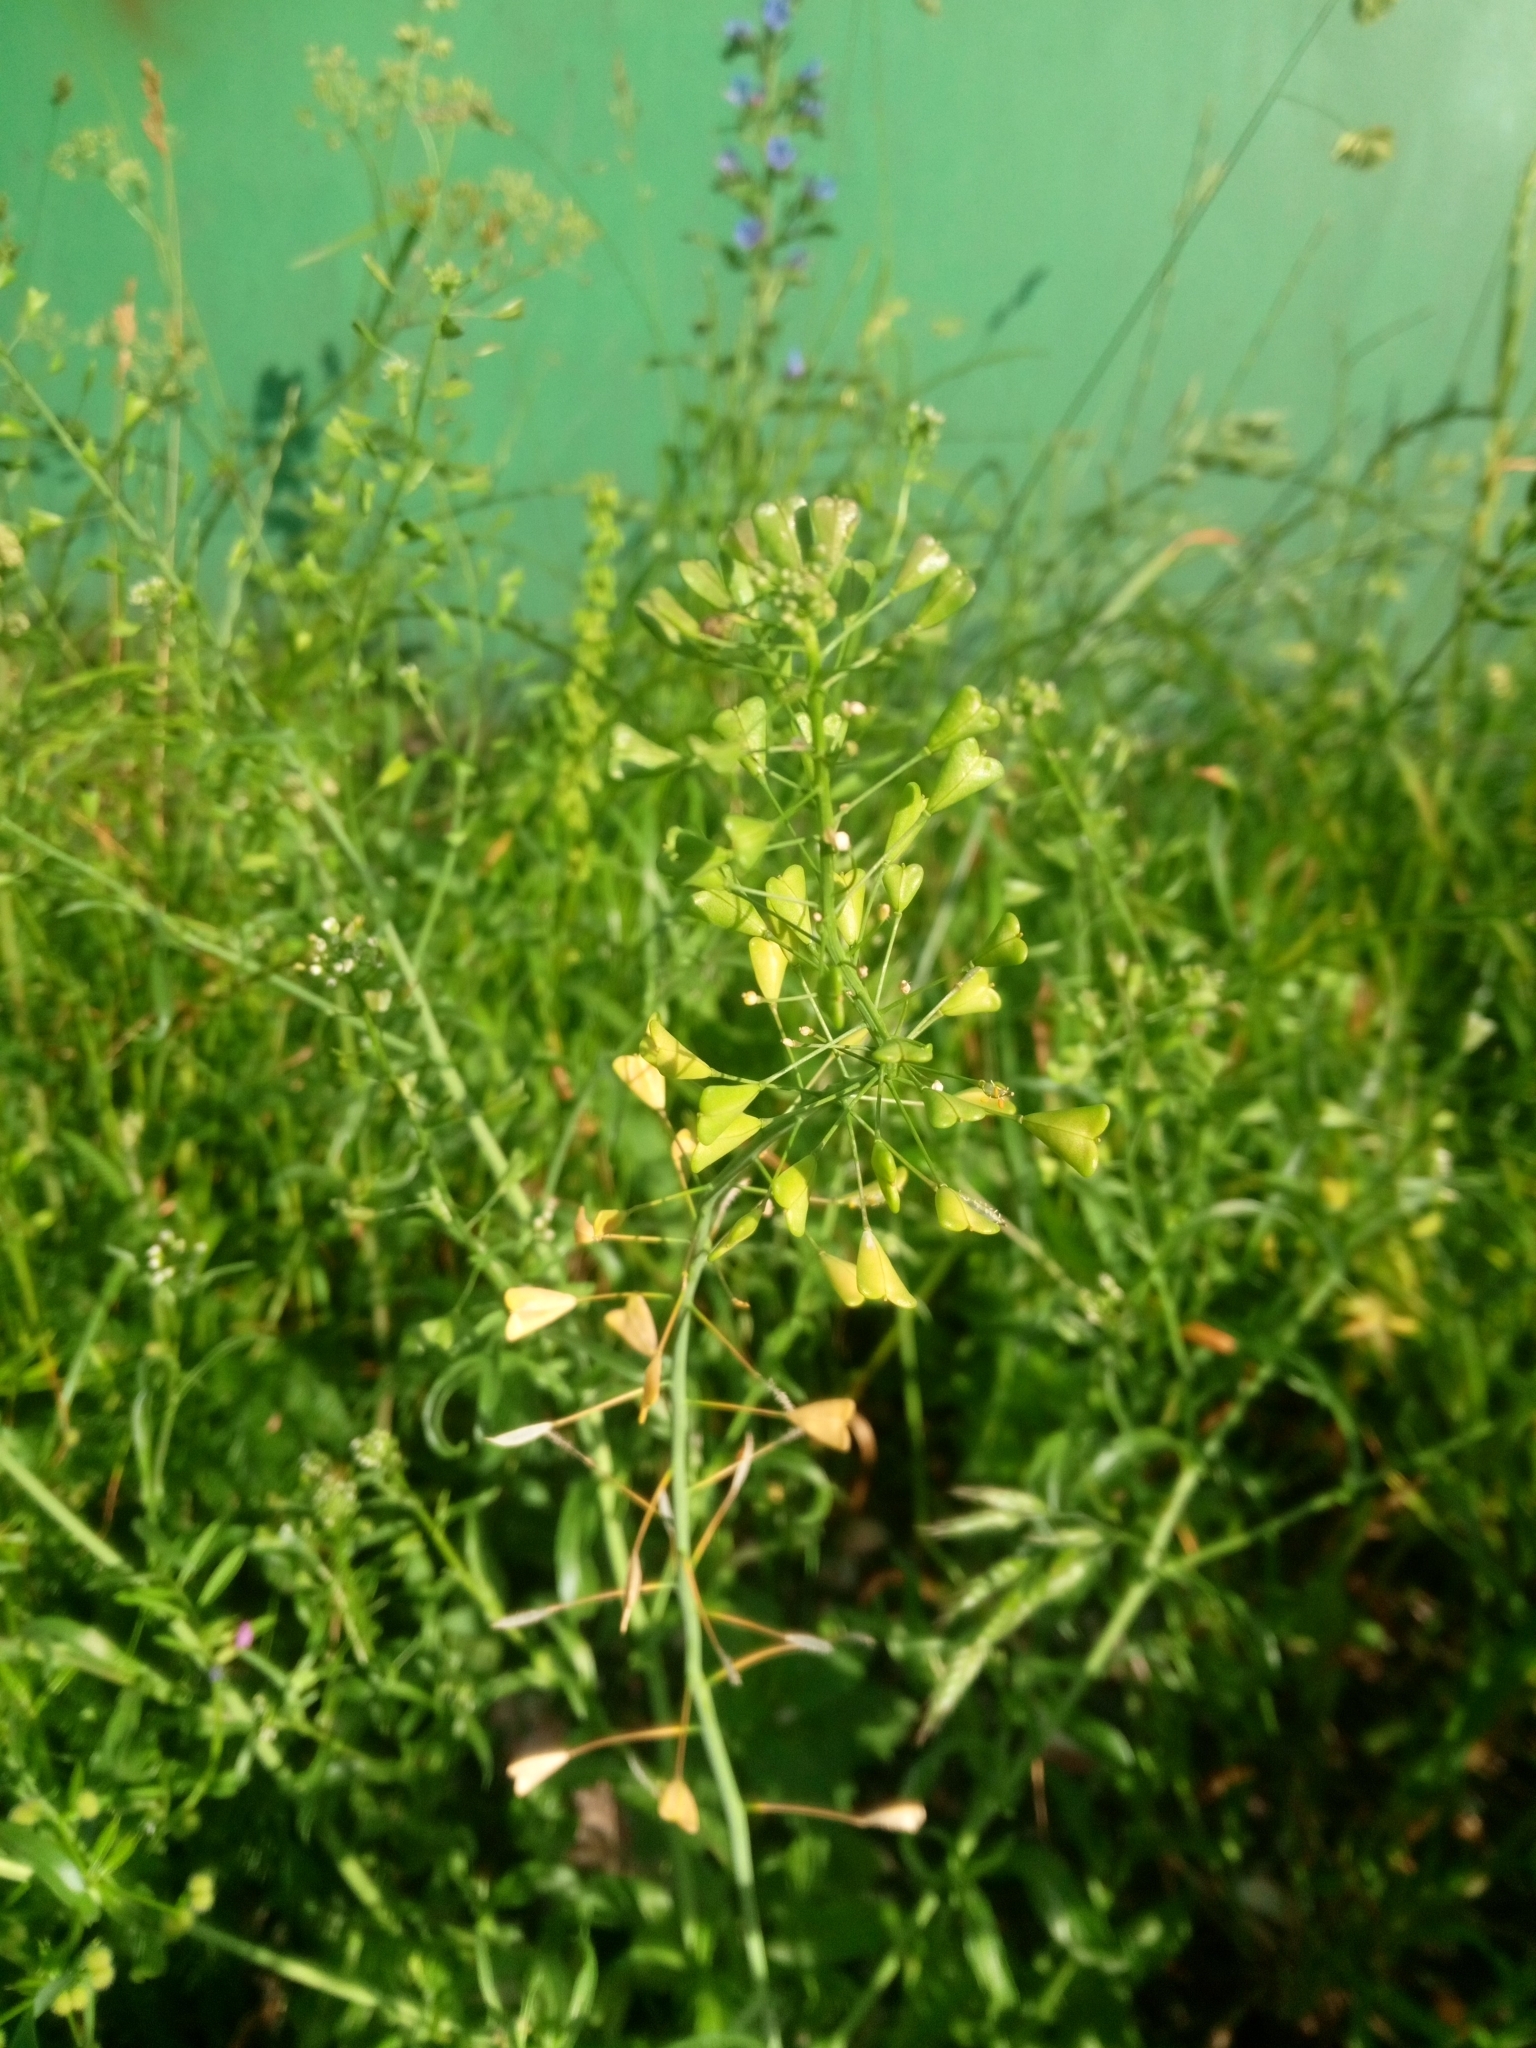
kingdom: Plantae
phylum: Tracheophyta
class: Magnoliopsida
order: Brassicales
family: Brassicaceae
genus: Capsella
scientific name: Capsella bursa-pastoris
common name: Shepherd's purse
